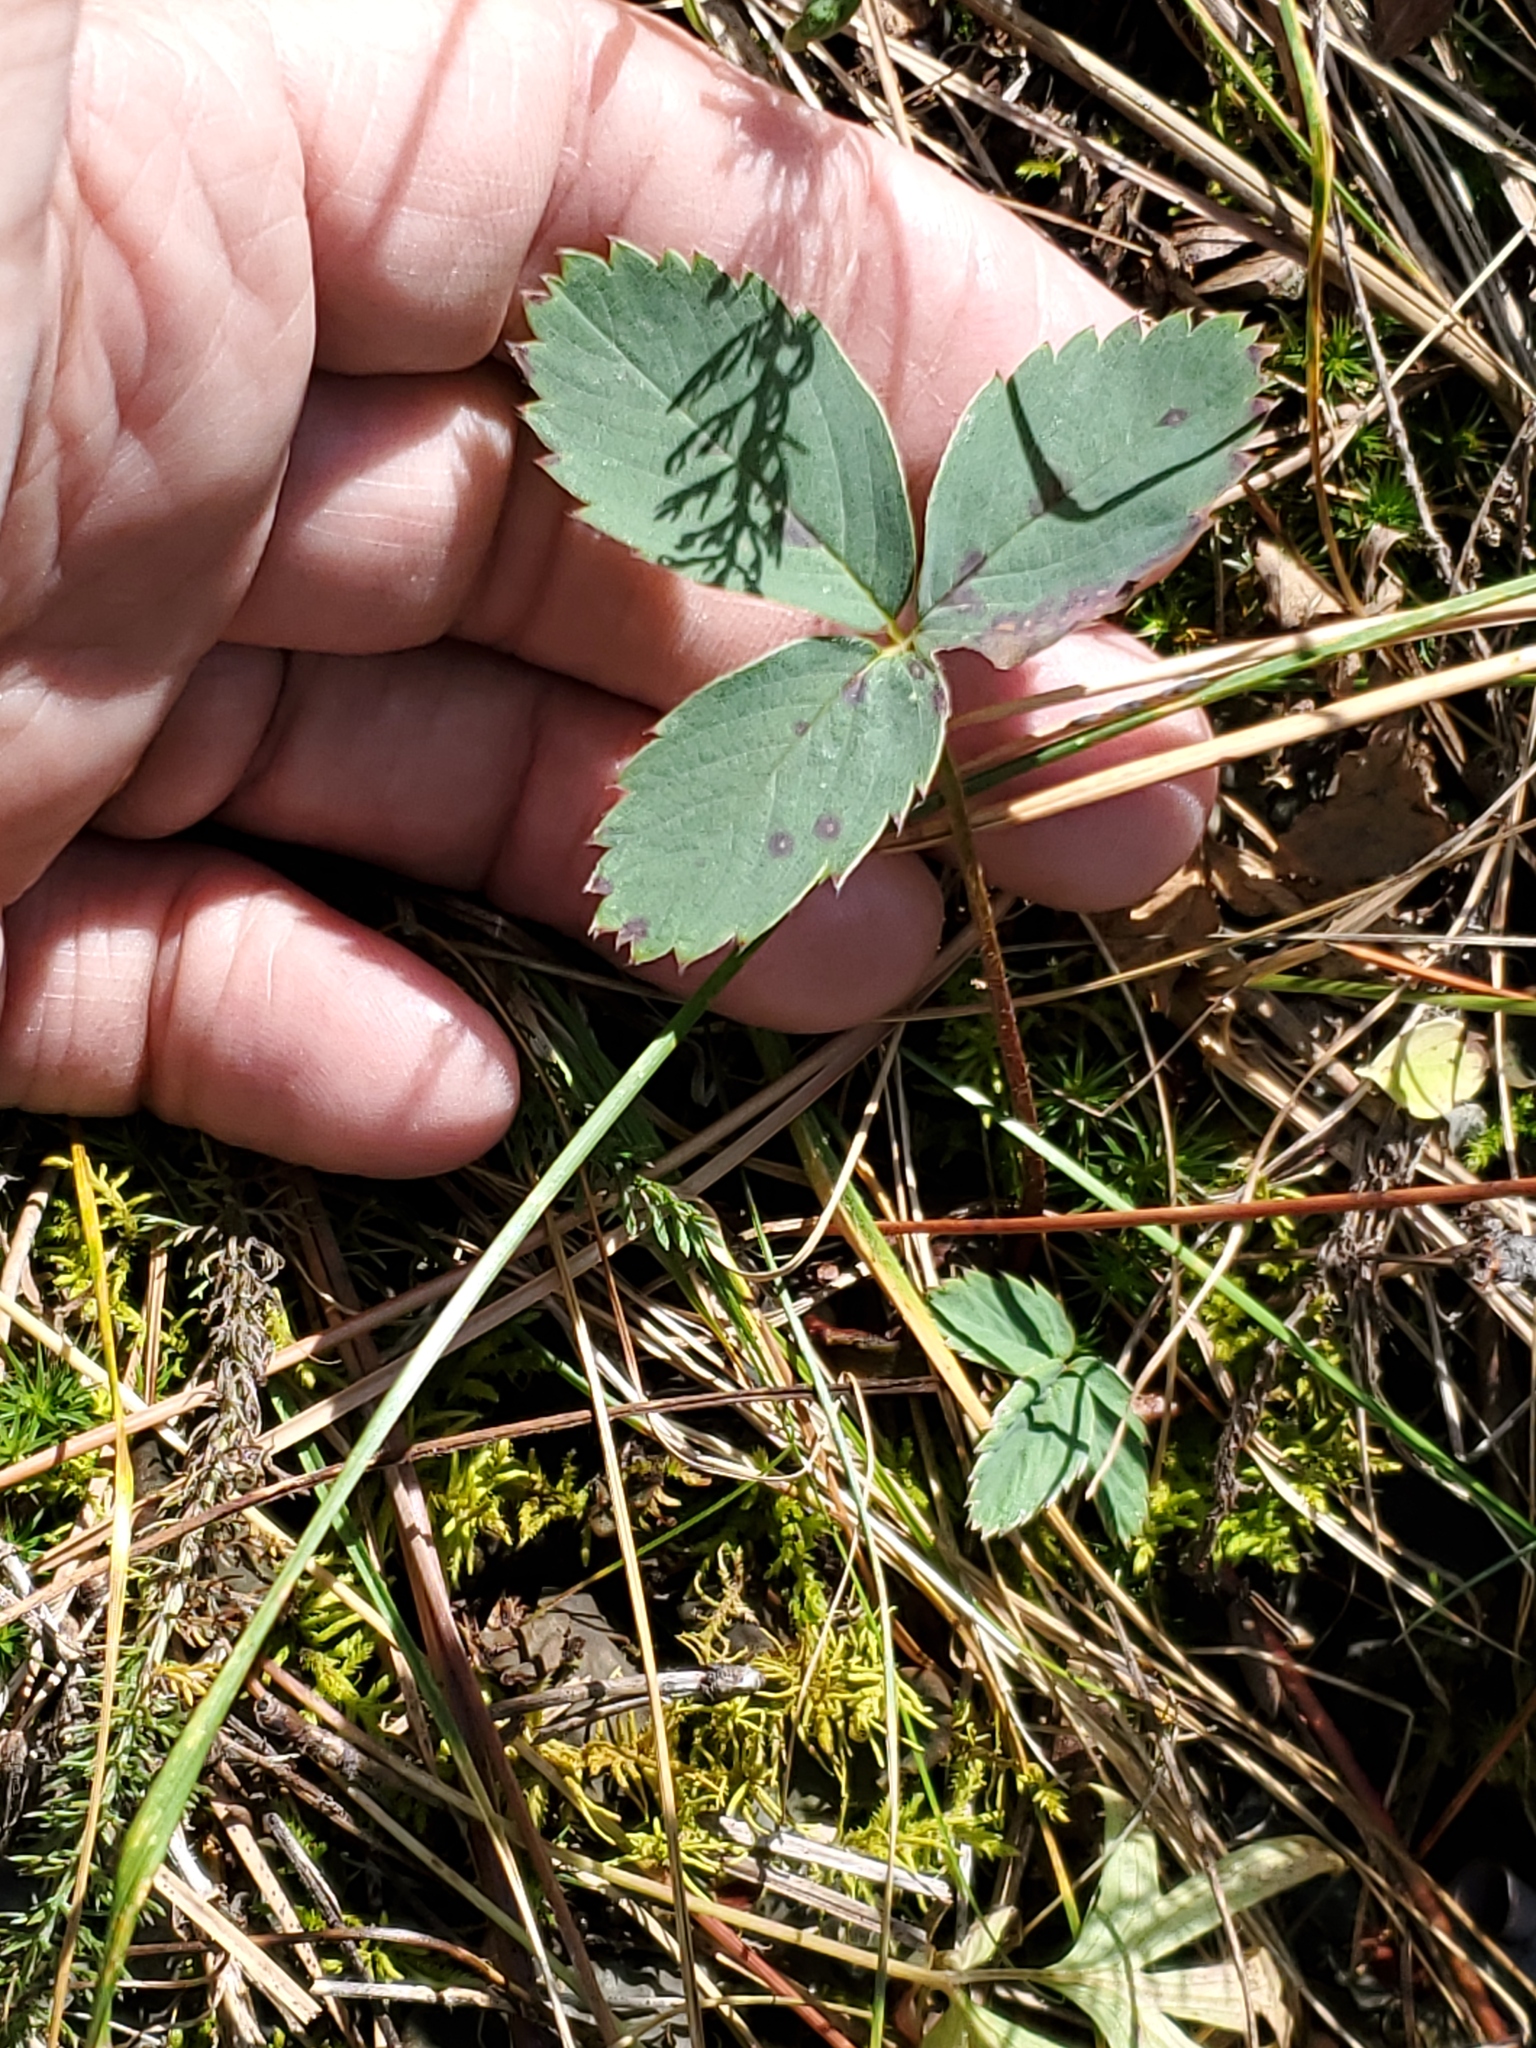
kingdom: Plantae
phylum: Tracheophyta
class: Magnoliopsida
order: Rosales
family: Rosaceae
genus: Fragaria
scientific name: Fragaria virginiana
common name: Thickleaved wild strawberry
